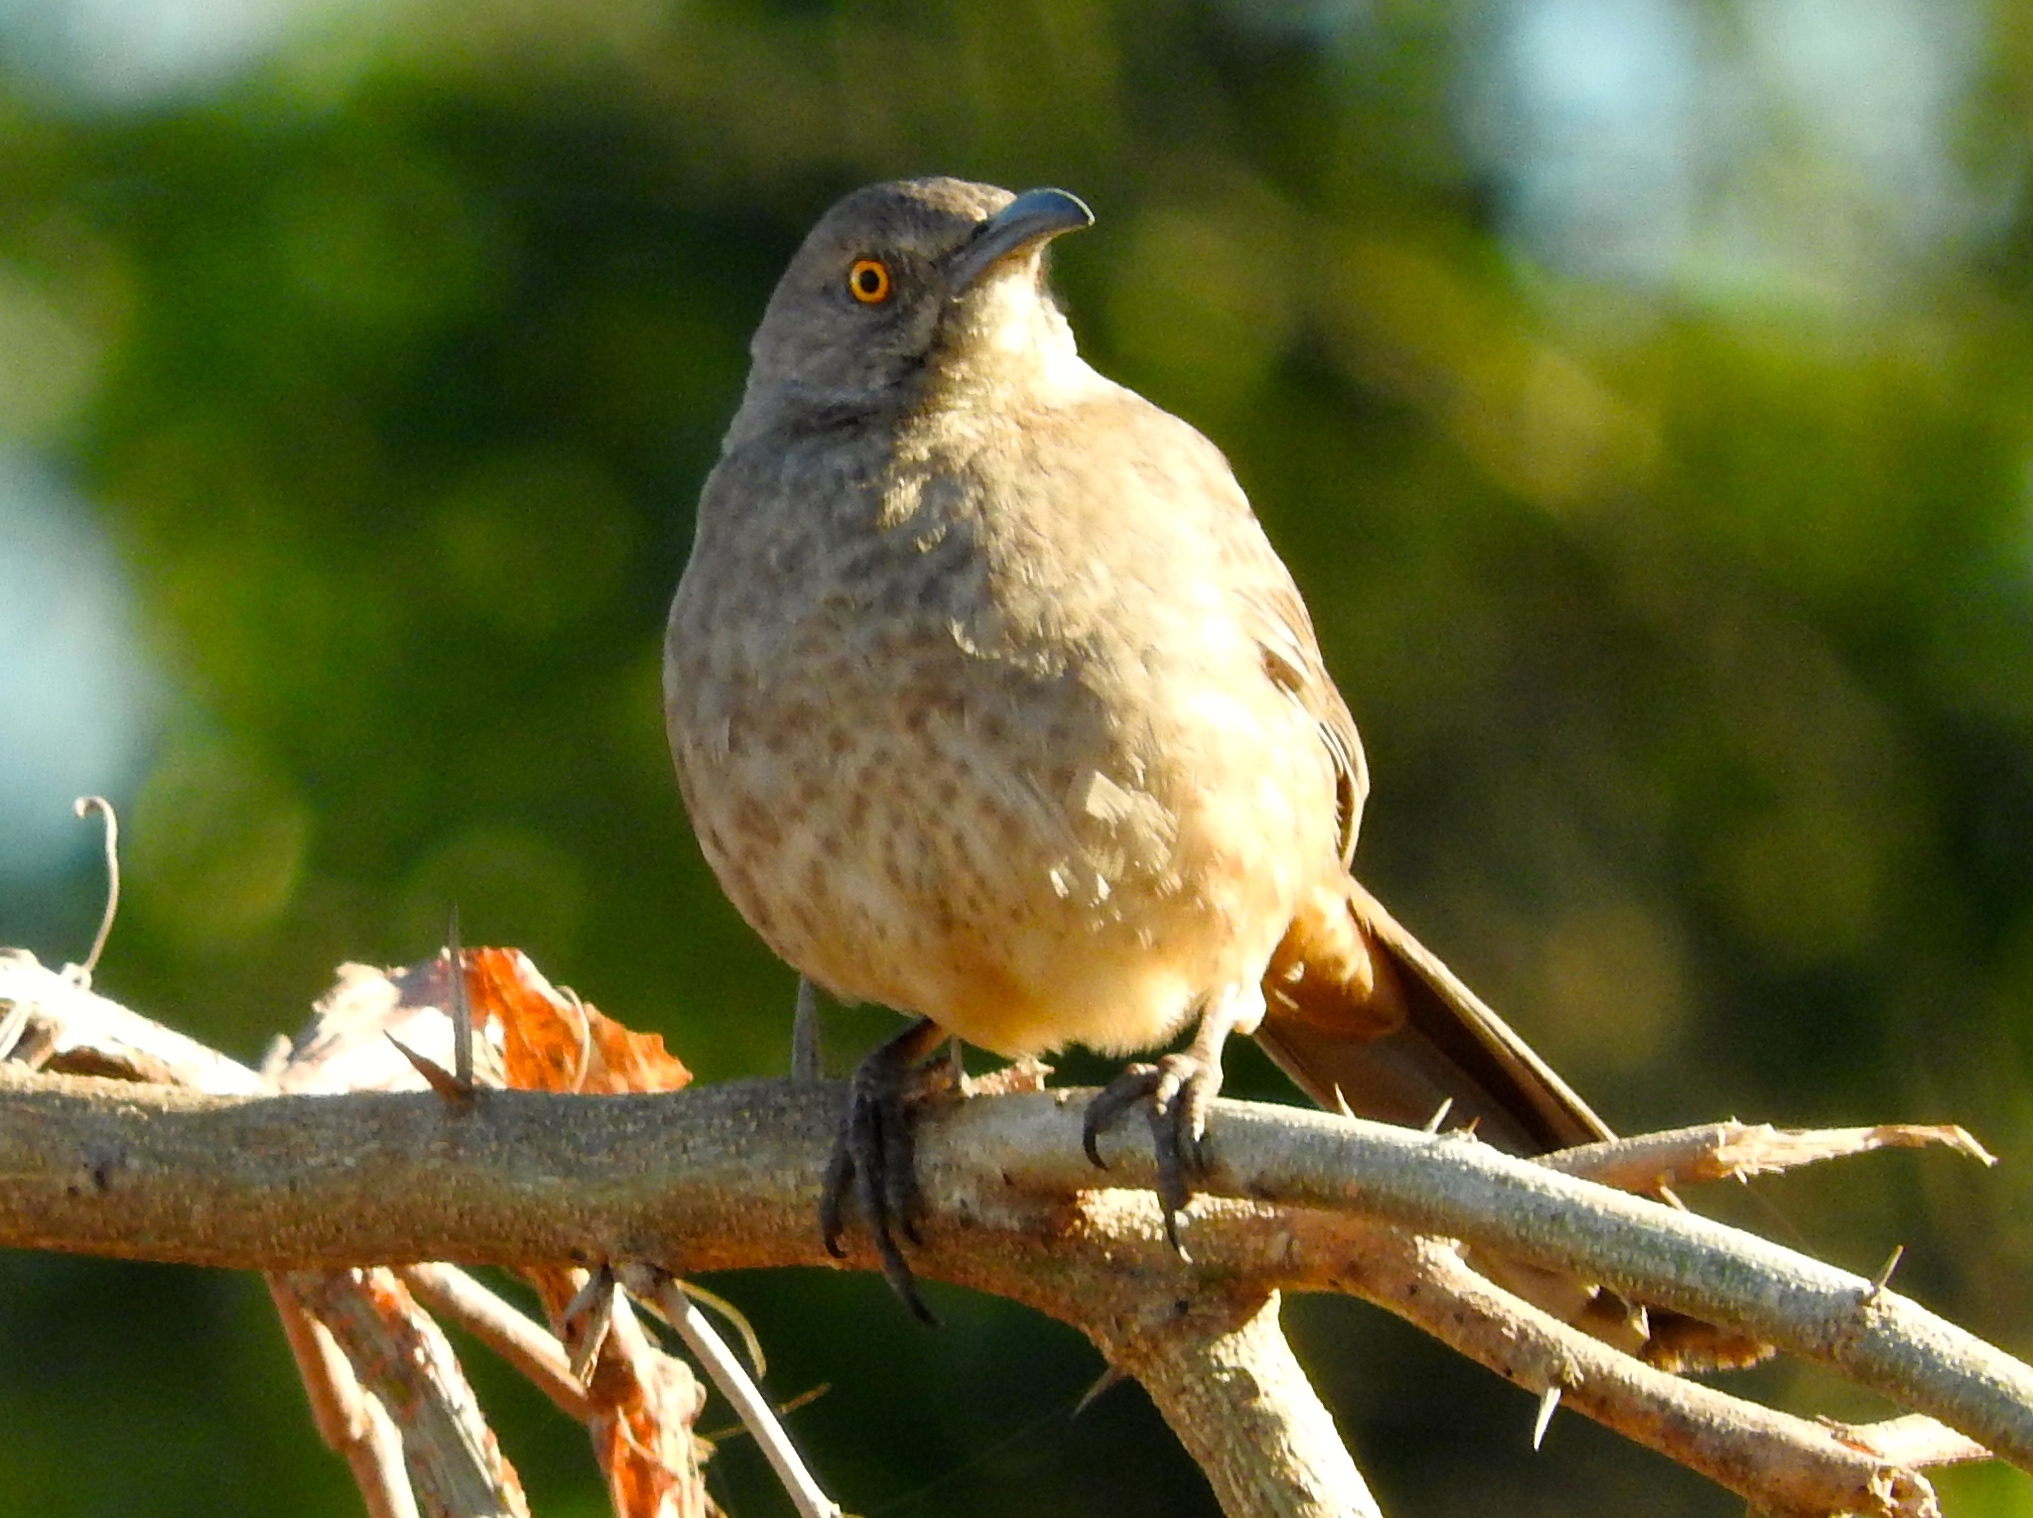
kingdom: Animalia
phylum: Chordata
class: Aves
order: Passeriformes
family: Mimidae
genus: Toxostoma
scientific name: Toxostoma curvirostre
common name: Curve-billed thrasher
